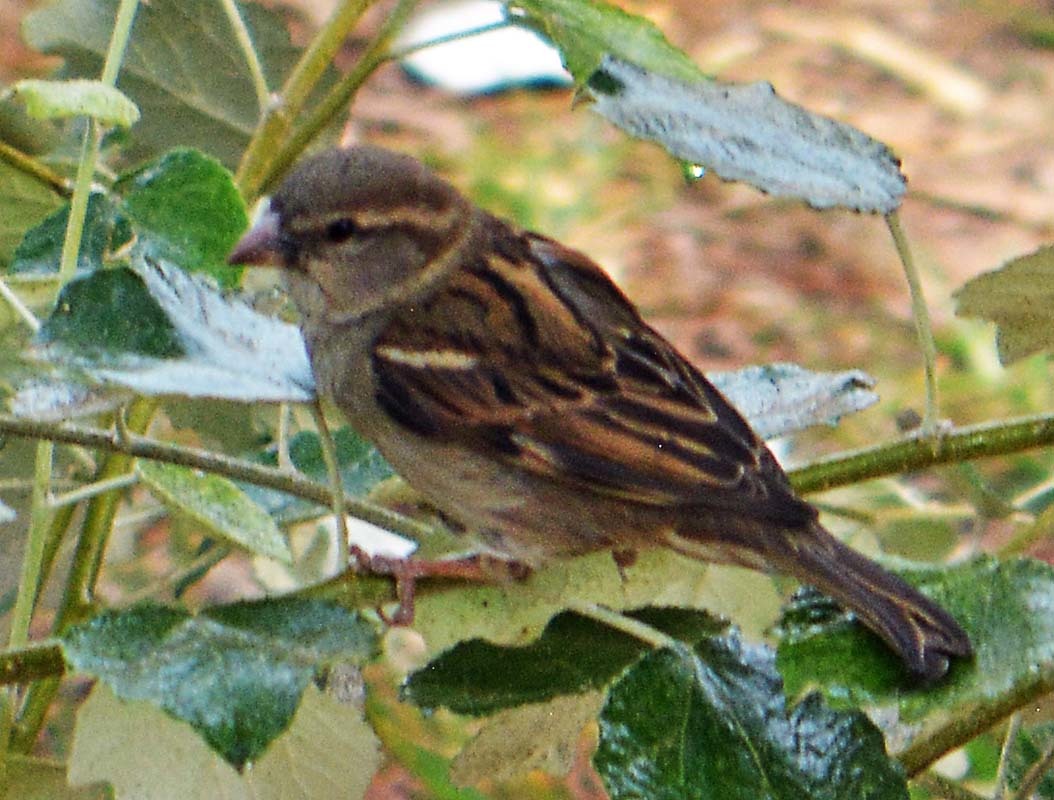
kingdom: Animalia
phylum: Chordata
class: Aves
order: Passeriformes
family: Passeridae
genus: Passer
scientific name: Passer domesticus
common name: House sparrow
